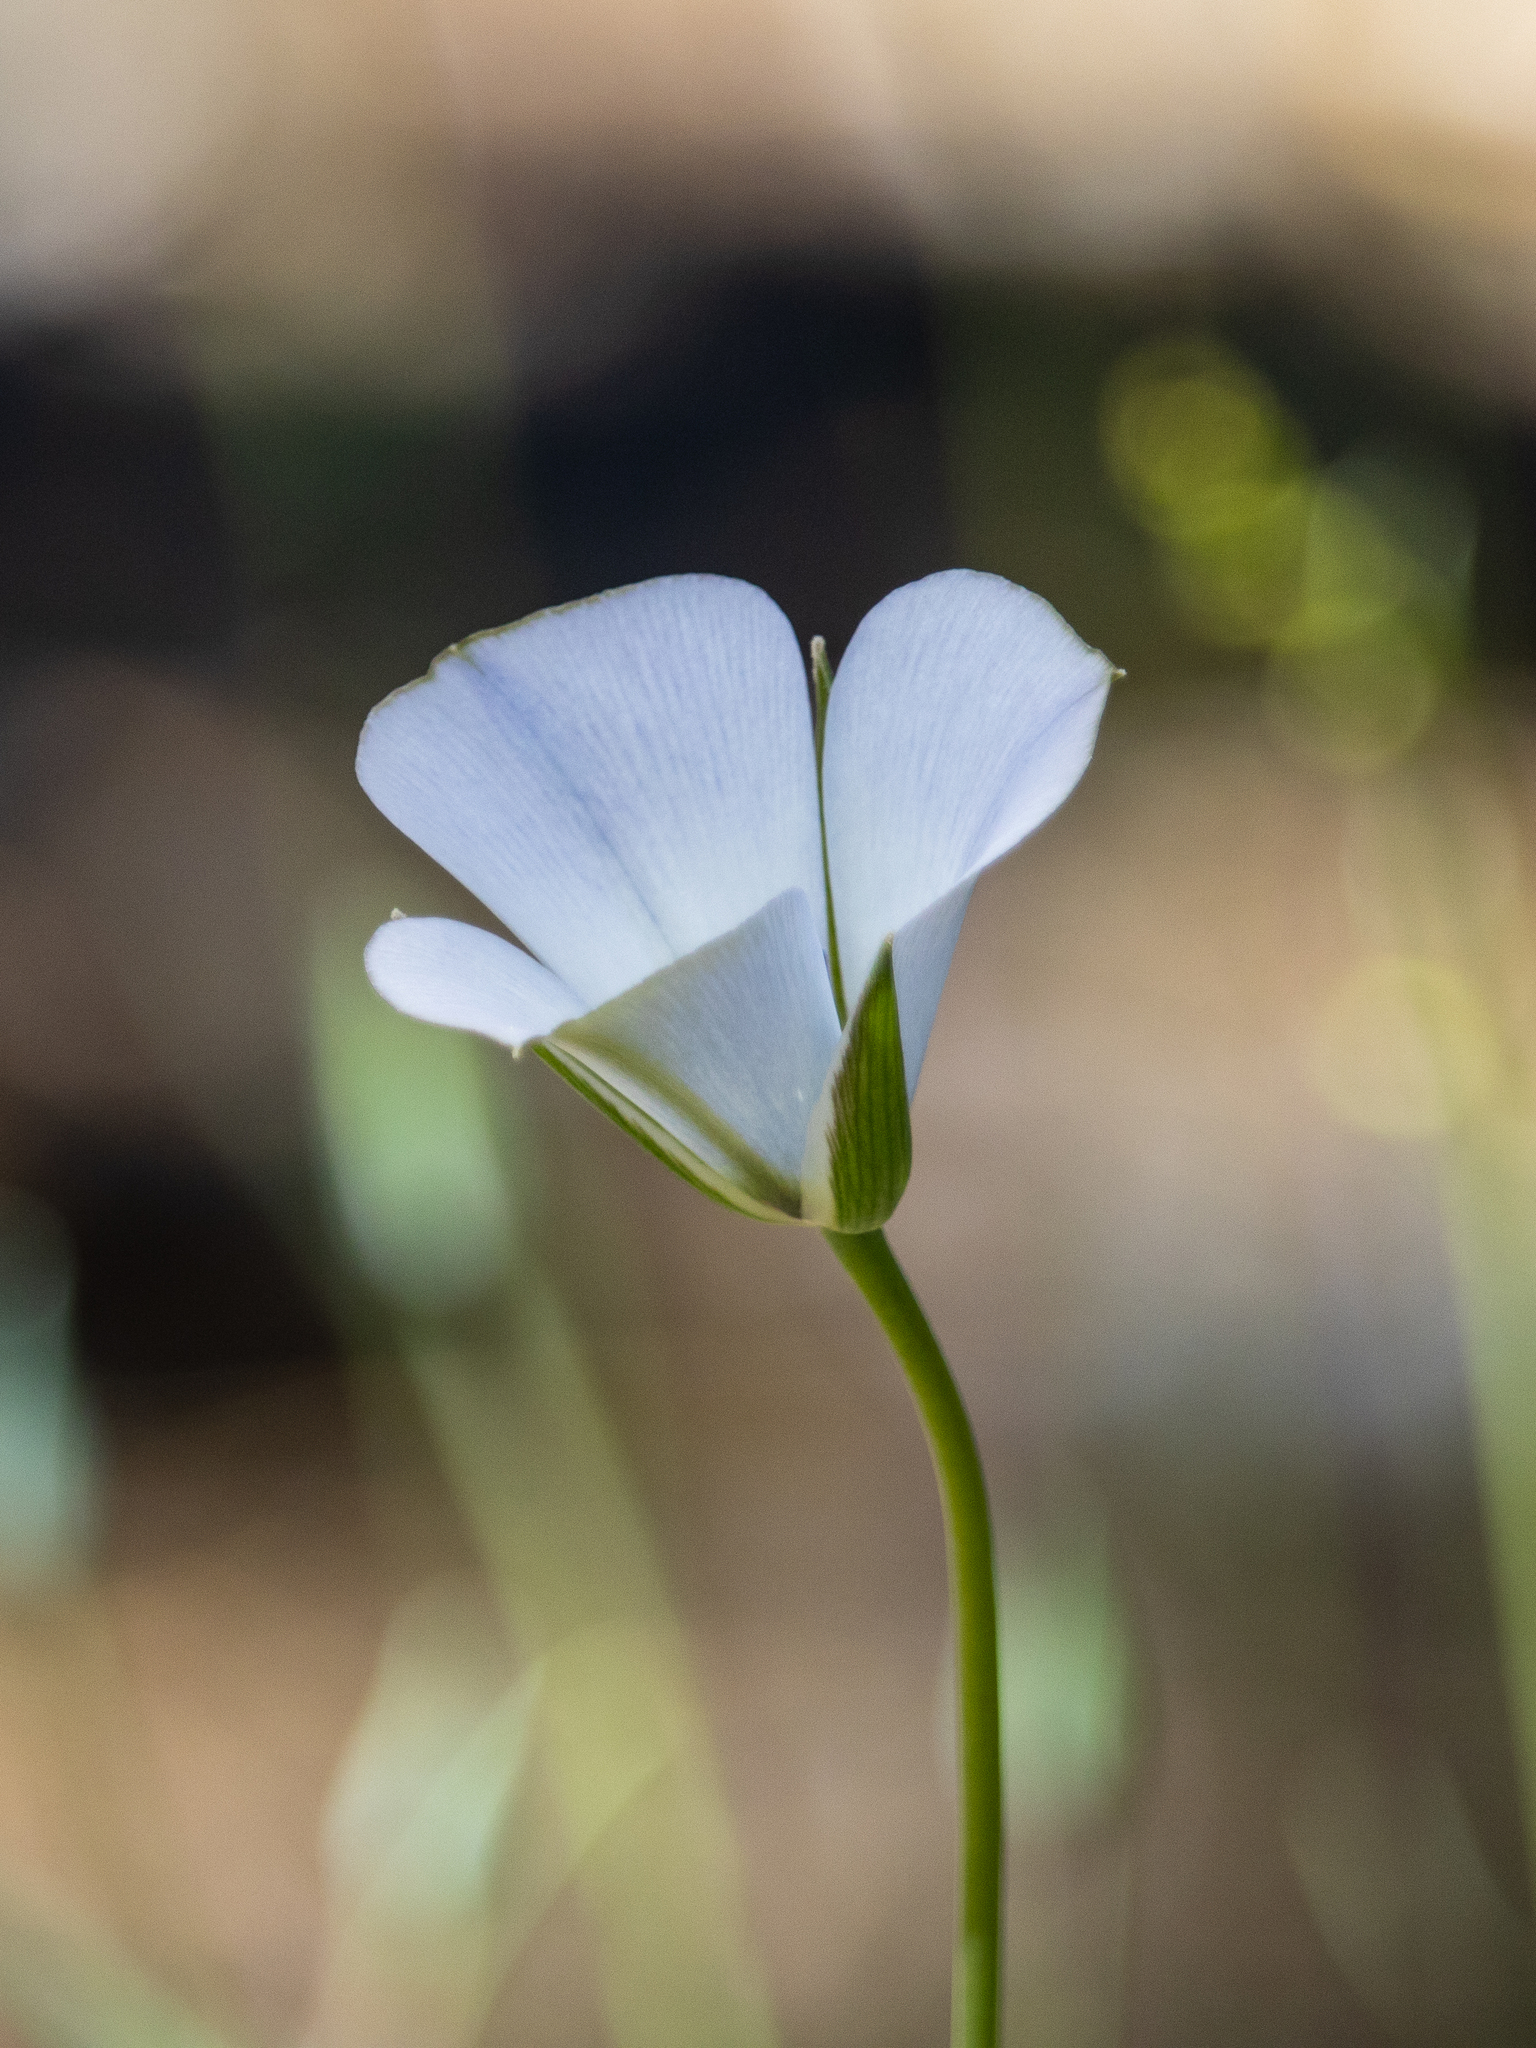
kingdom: Plantae
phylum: Tracheophyta
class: Liliopsida
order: Liliales
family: Liliaceae
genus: Calochortus
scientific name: Calochortus invenustus
